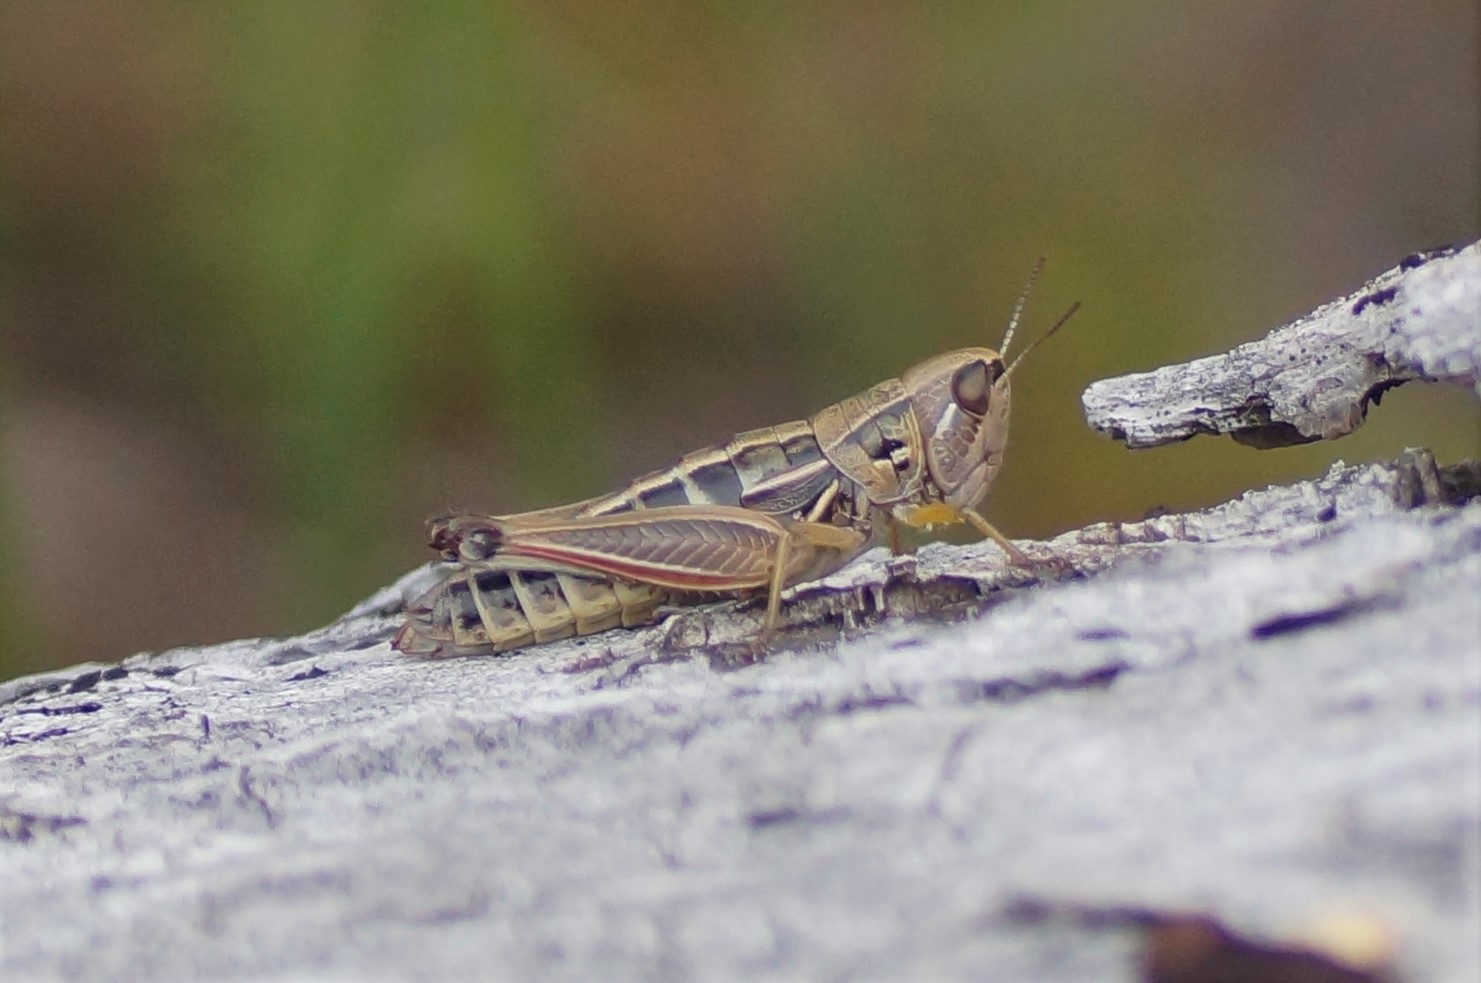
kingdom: Animalia
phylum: Arthropoda
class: Insecta
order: Orthoptera
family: Acrididae
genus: Kosciuscola
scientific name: Kosciuscola cuneatus
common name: Brown kosciuscola
